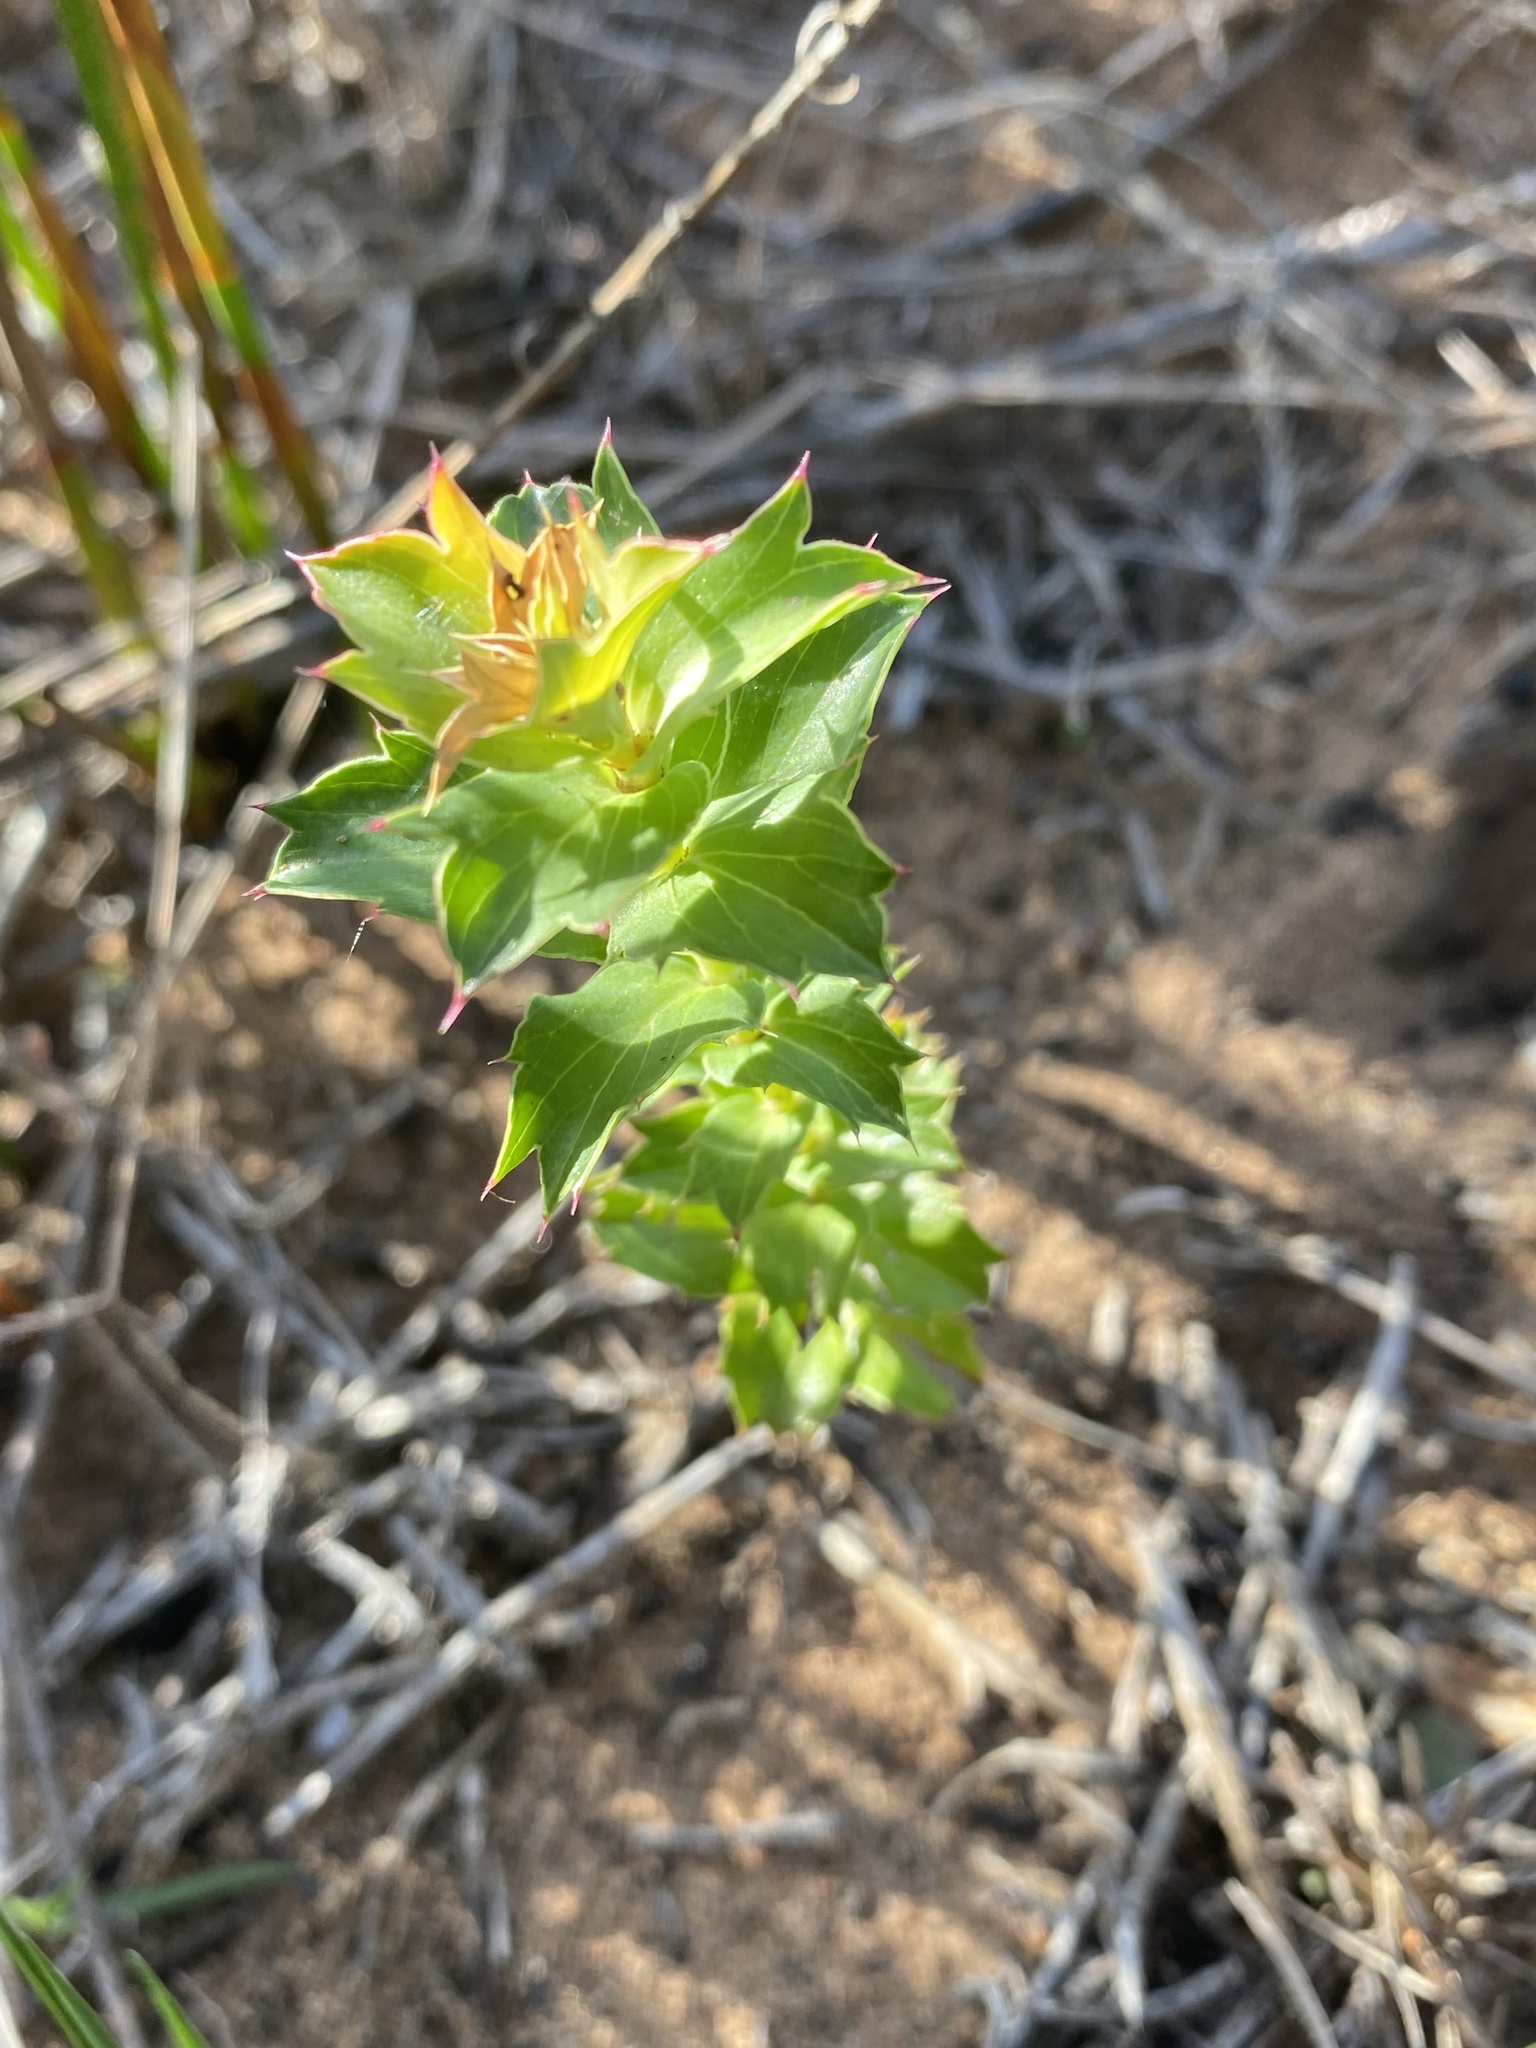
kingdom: Plantae
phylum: Tracheophyta
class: Magnoliopsida
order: Rosales
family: Rosaceae
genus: Cliffortia
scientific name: Cliffortia schlechteri
